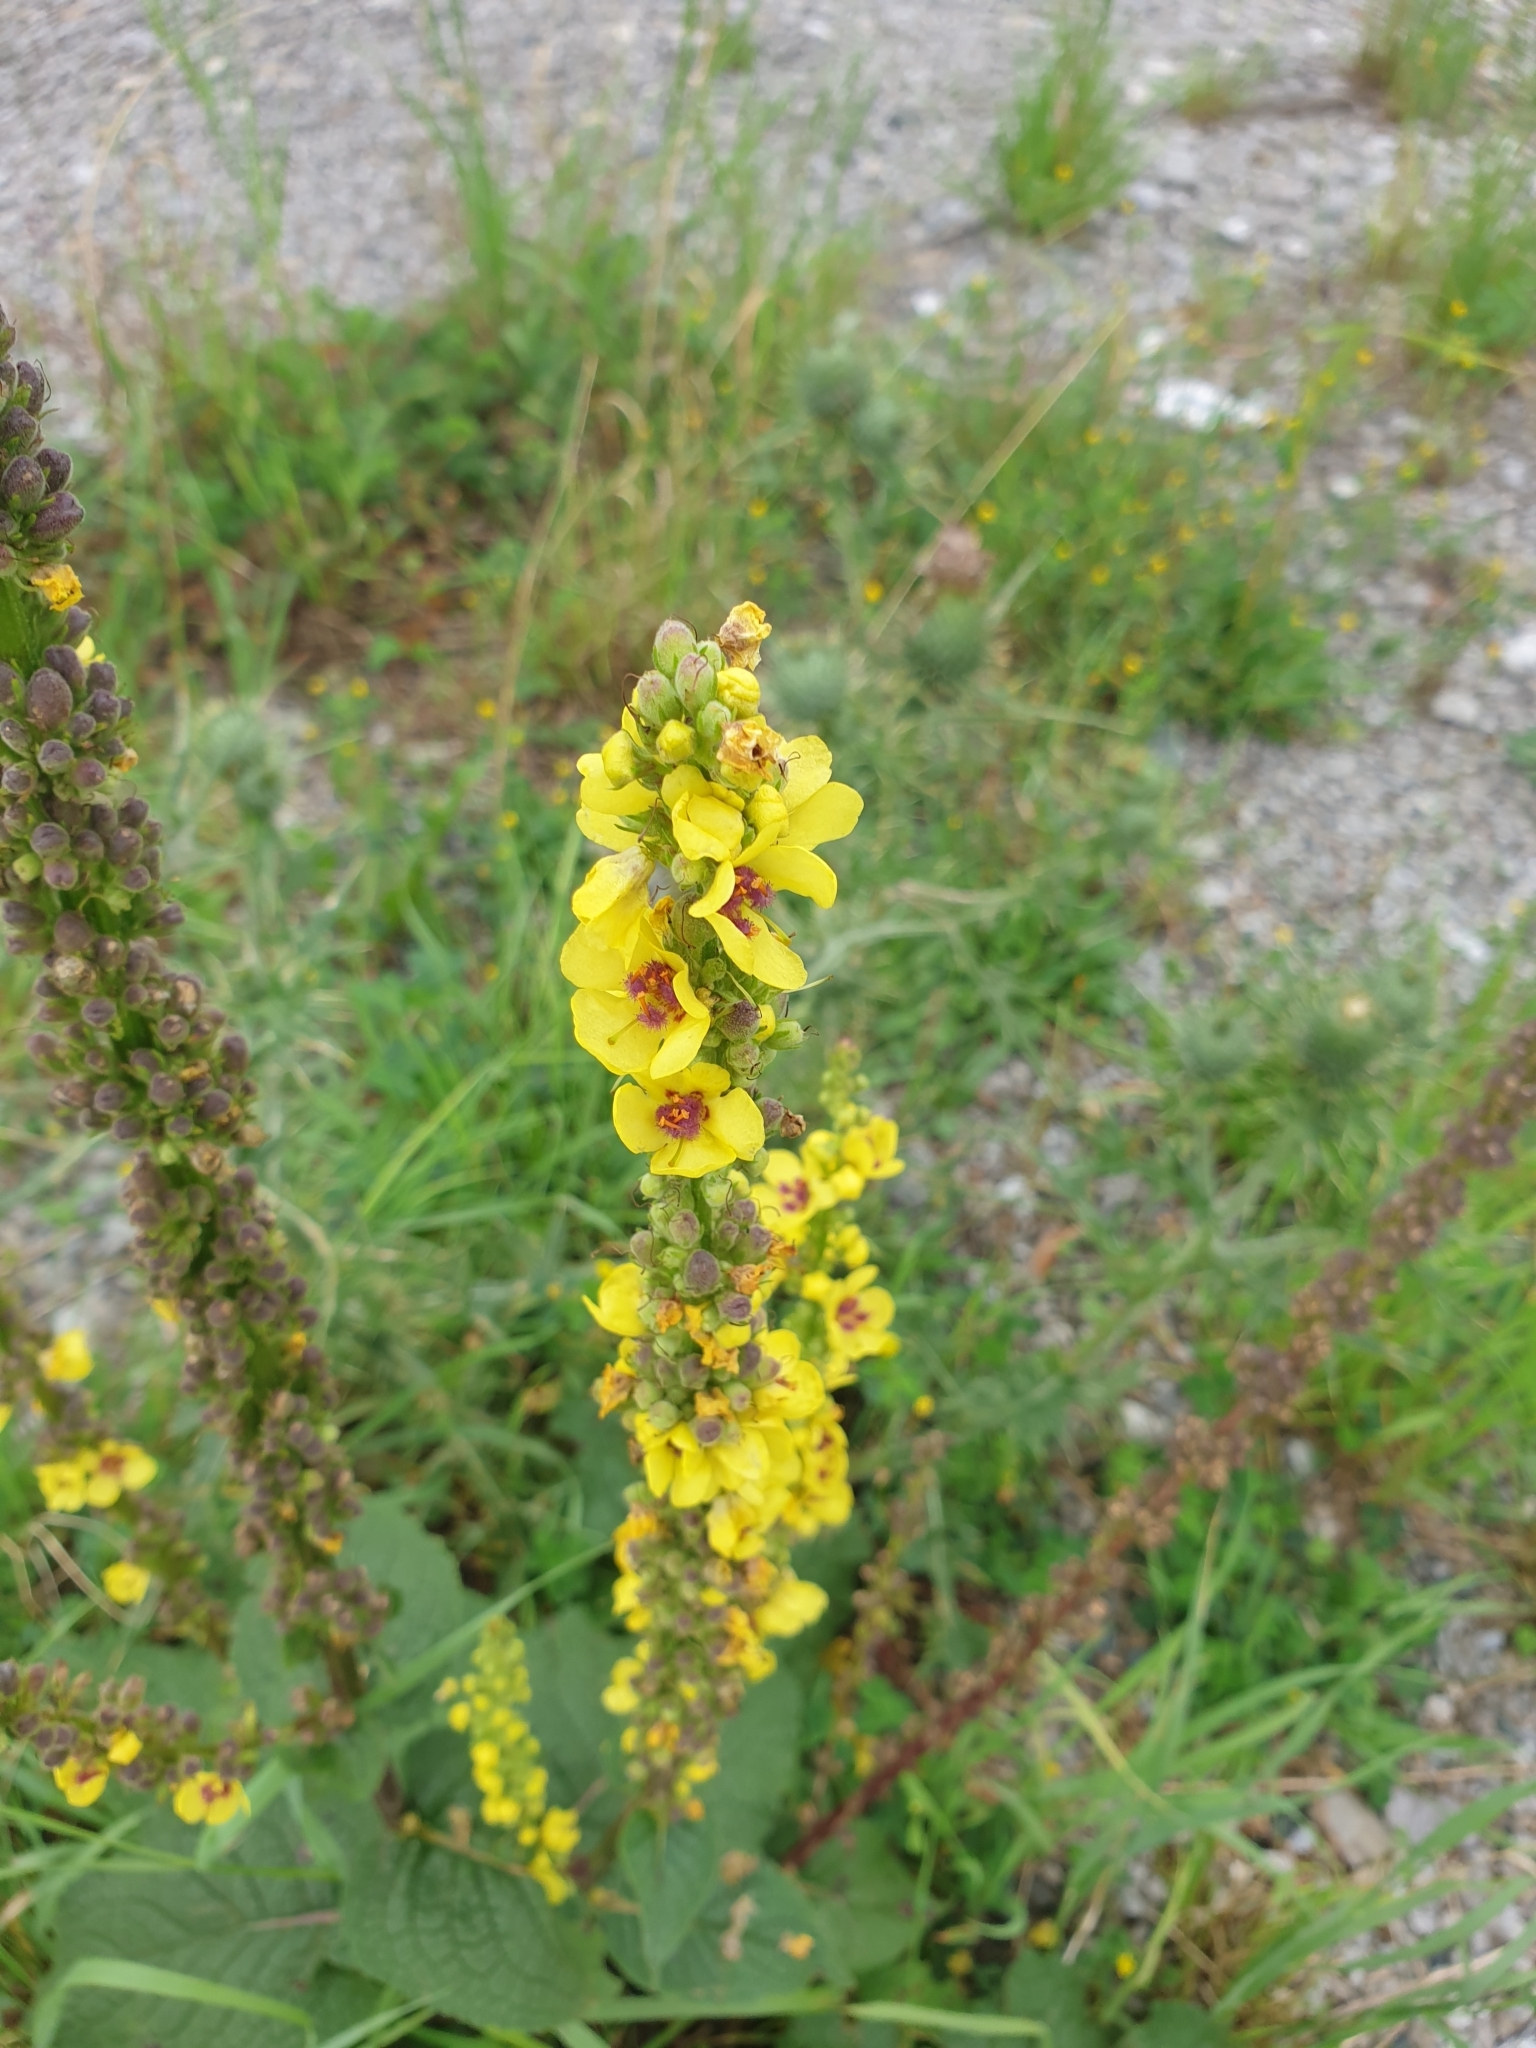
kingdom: Plantae
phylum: Tracheophyta
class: Magnoliopsida
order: Lamiales
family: Scrophulariaceae
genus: Verbascum
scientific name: Verbascum nigrum
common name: Dark mullein
